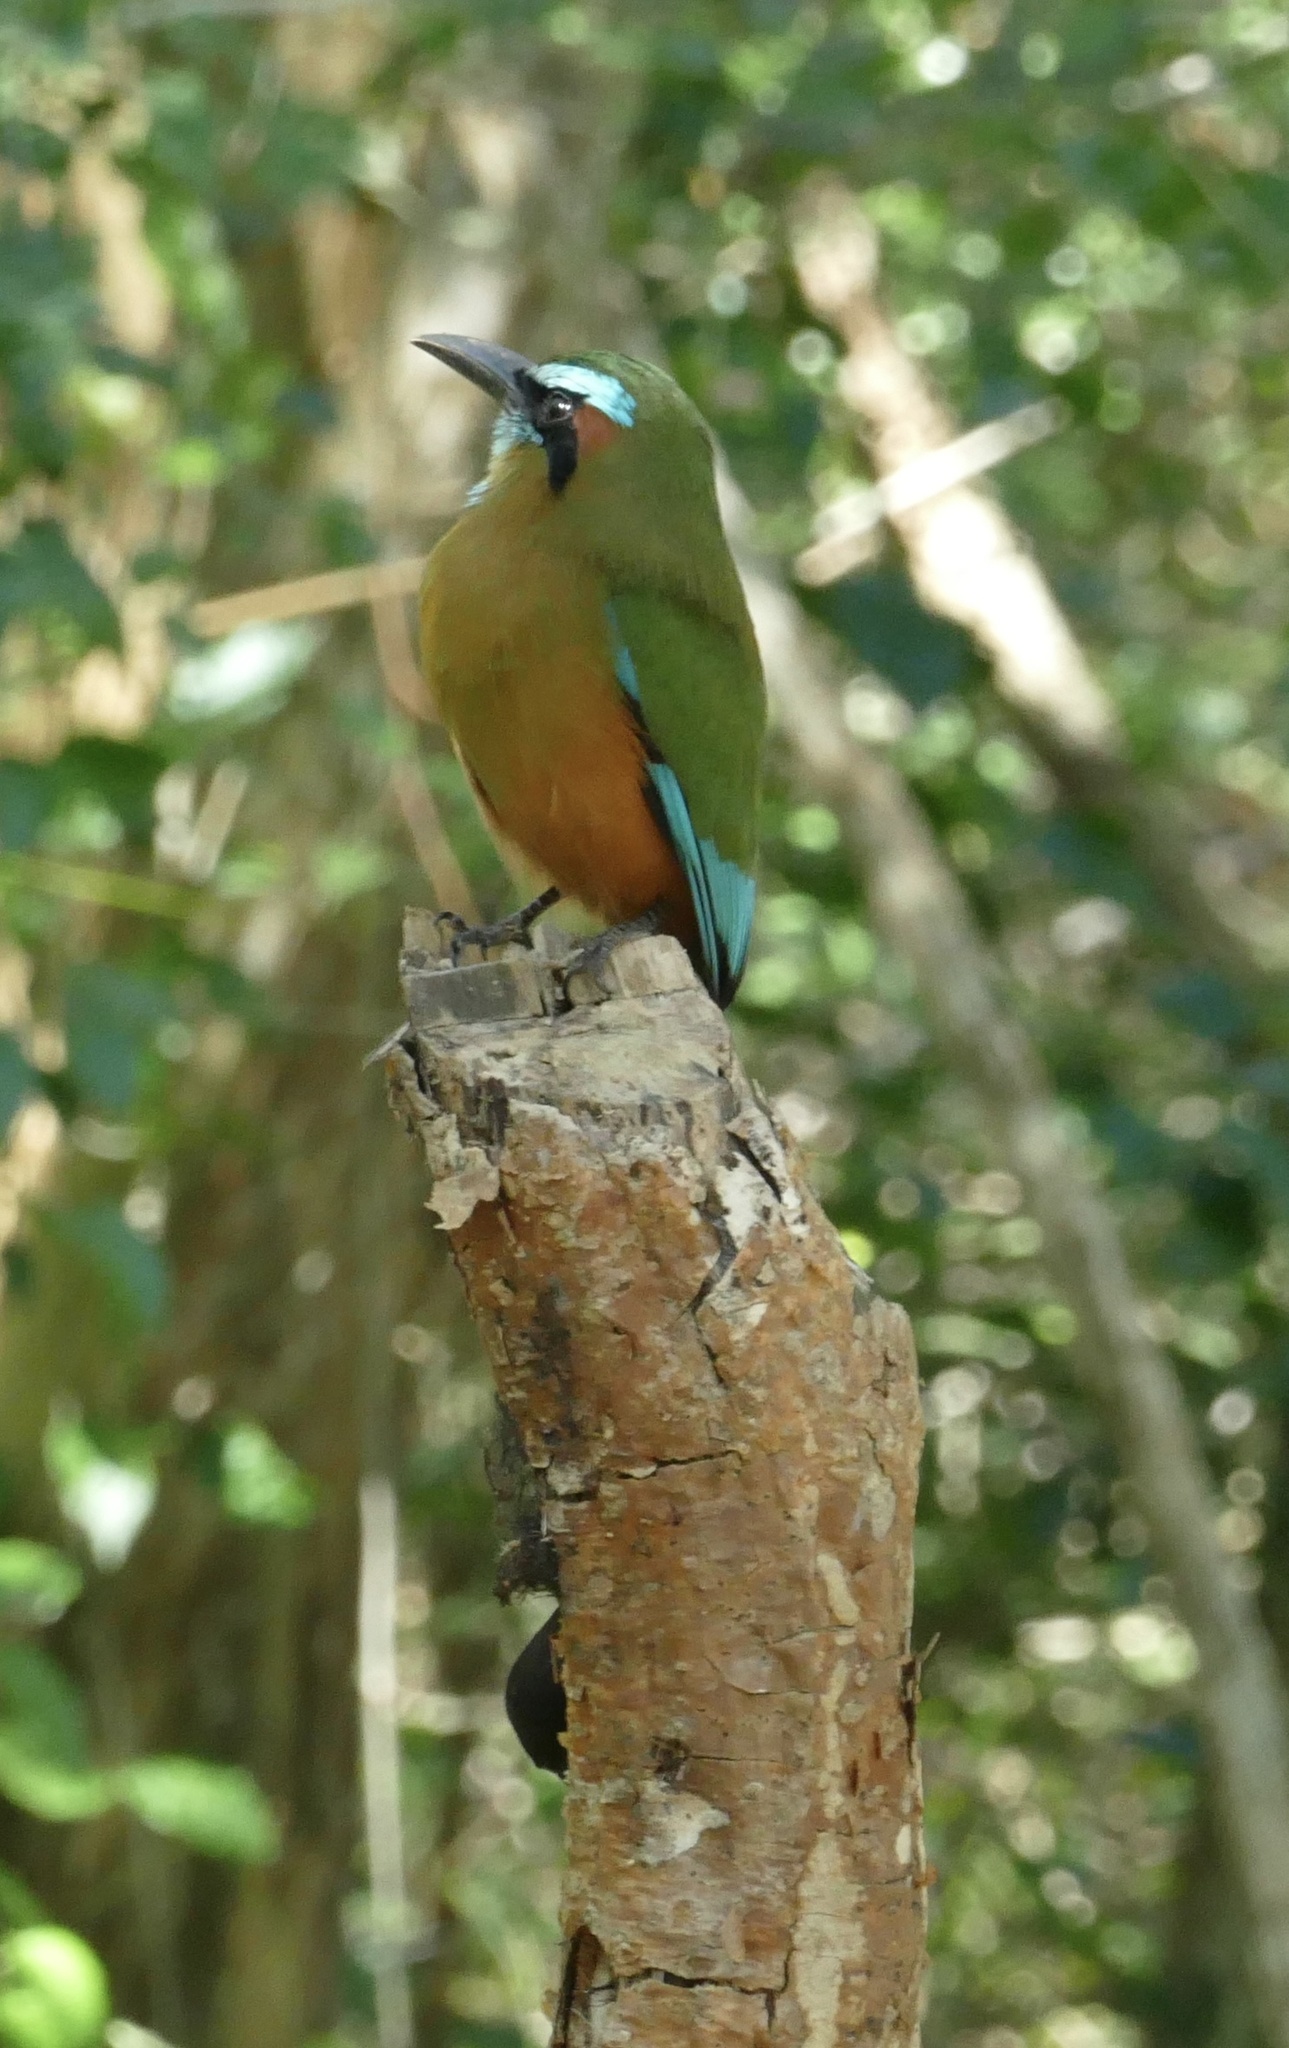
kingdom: Animalia
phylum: Chordata
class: Aves
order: Coraciiformes
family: Momotidae
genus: Eumomota
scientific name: Eumomota superciliosa
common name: Turquoise-browed motmot
